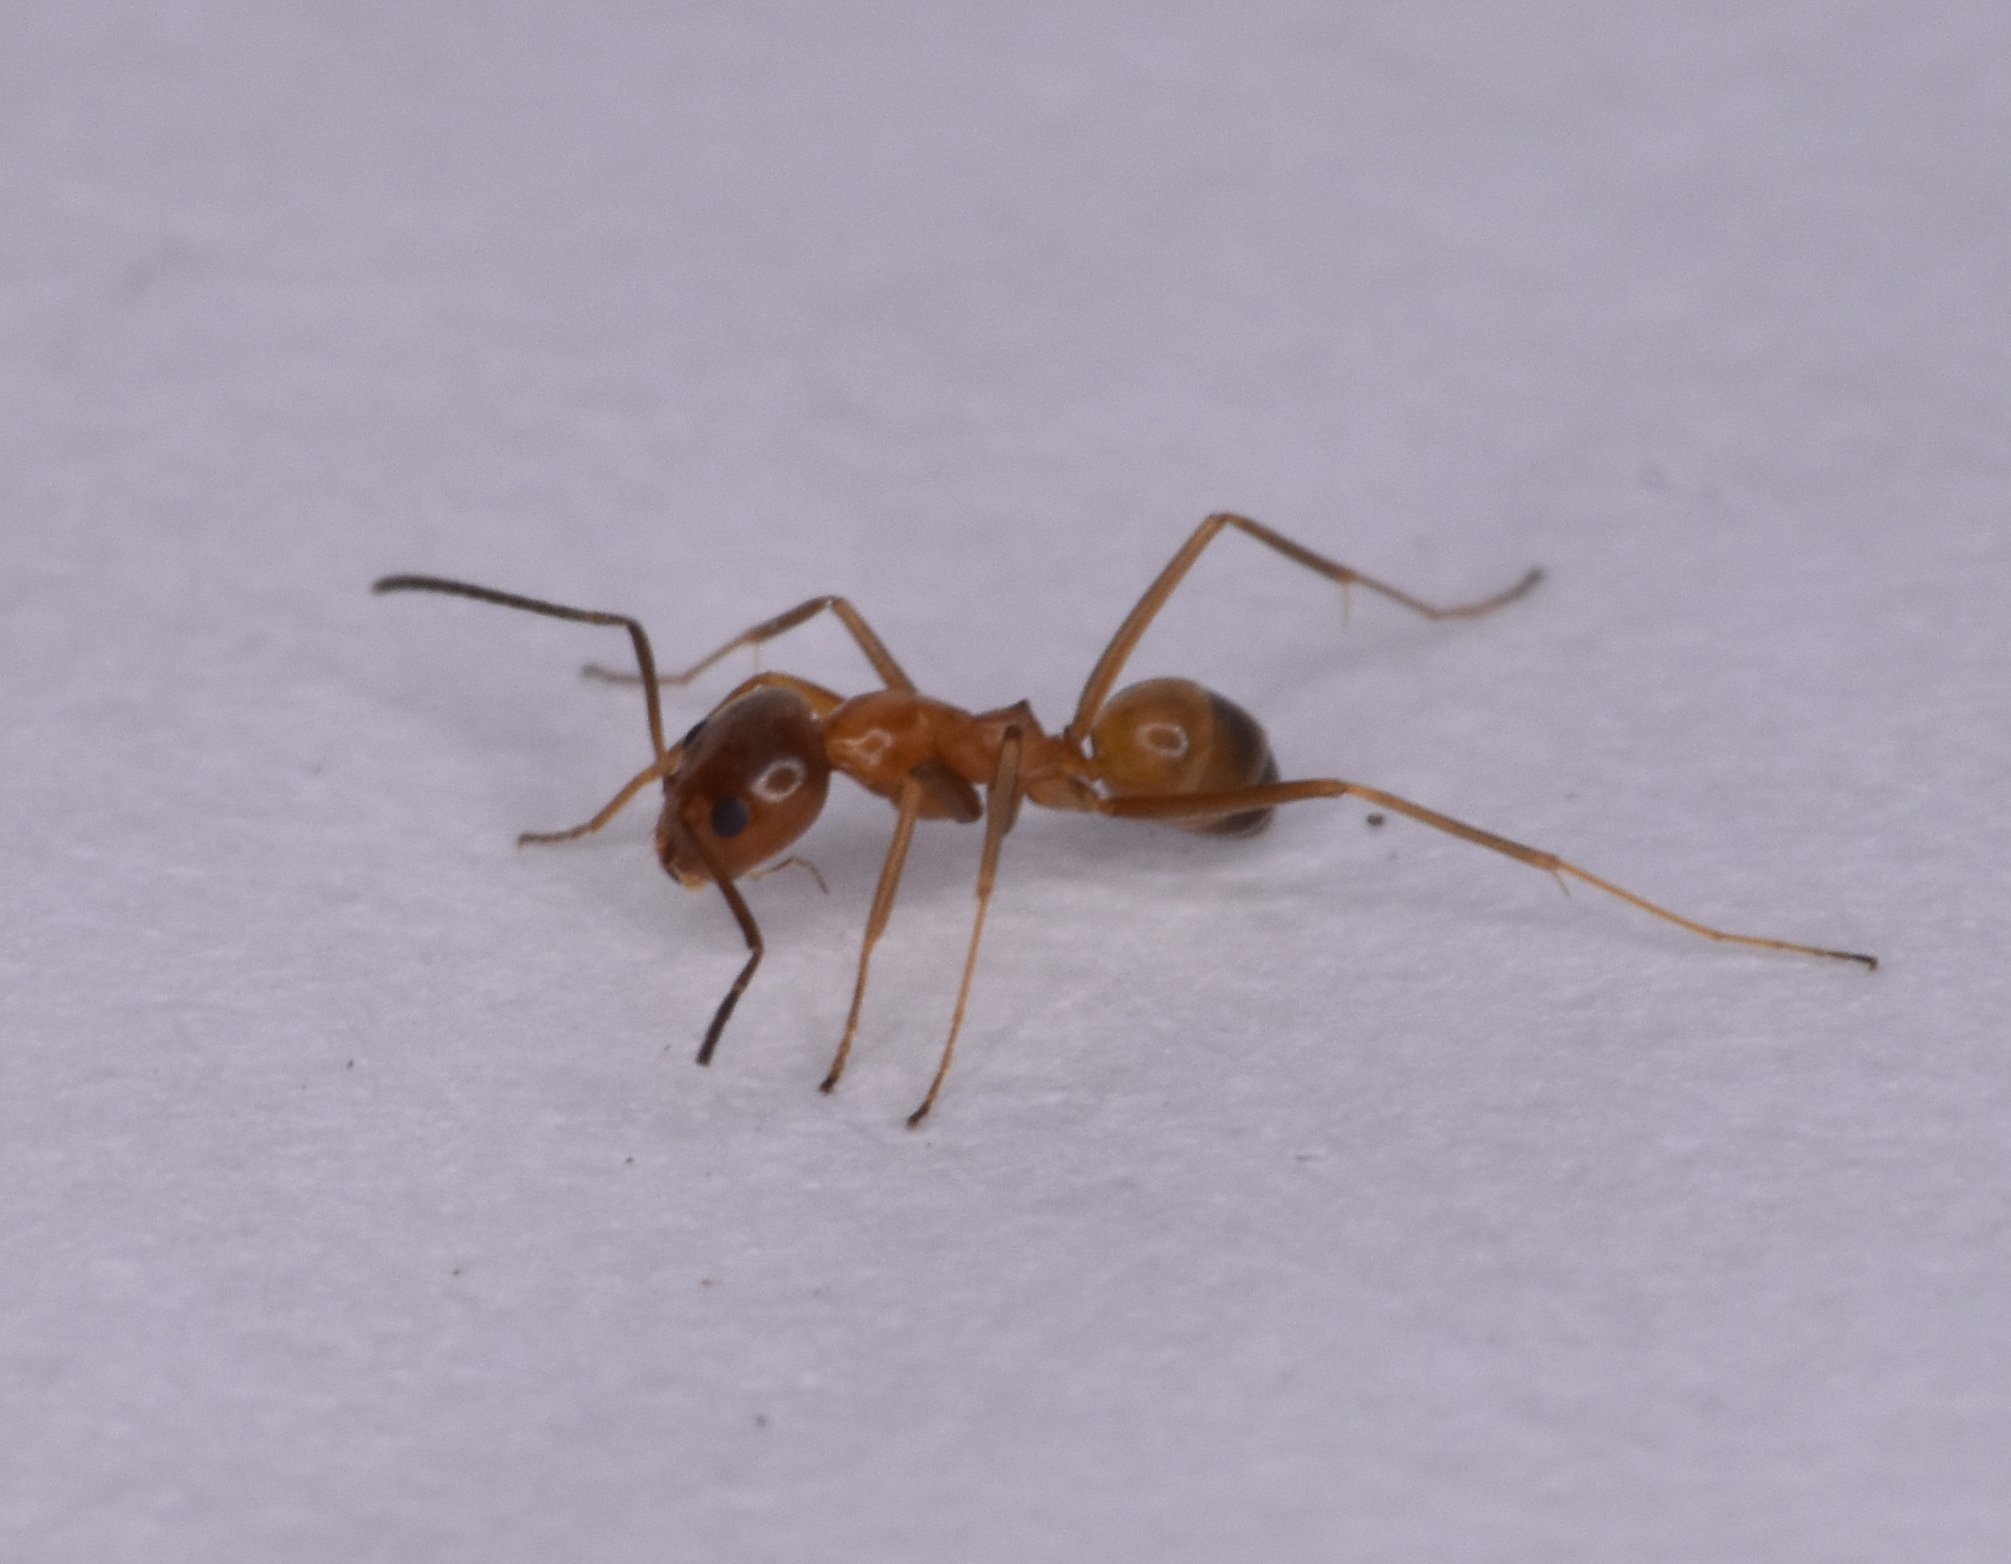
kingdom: Animalia
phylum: Arthropoda
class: Insecta
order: Hymenoptera
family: Formicidae
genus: Dorymyrmex
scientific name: Dorymyrmex bureni
